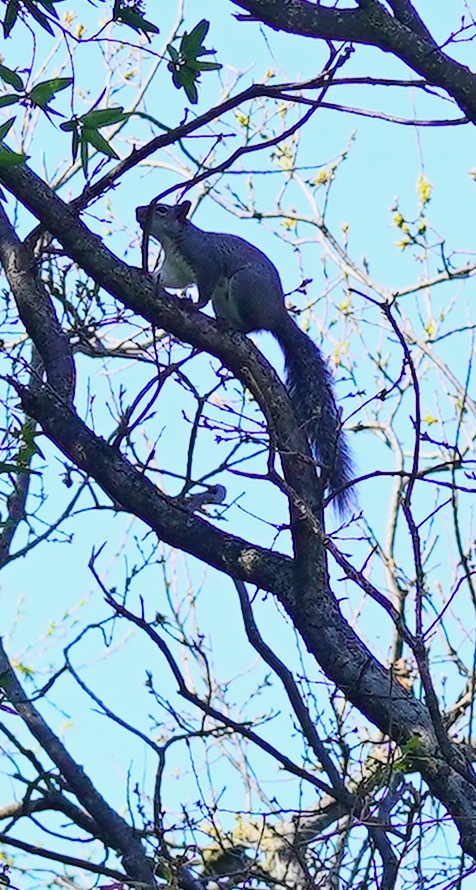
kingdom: Animalia
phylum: Chordata
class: Mammalia
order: Rodentia
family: Sciuridae
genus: Sciurus
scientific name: Sciurus griseus
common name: Western gray squirrel
